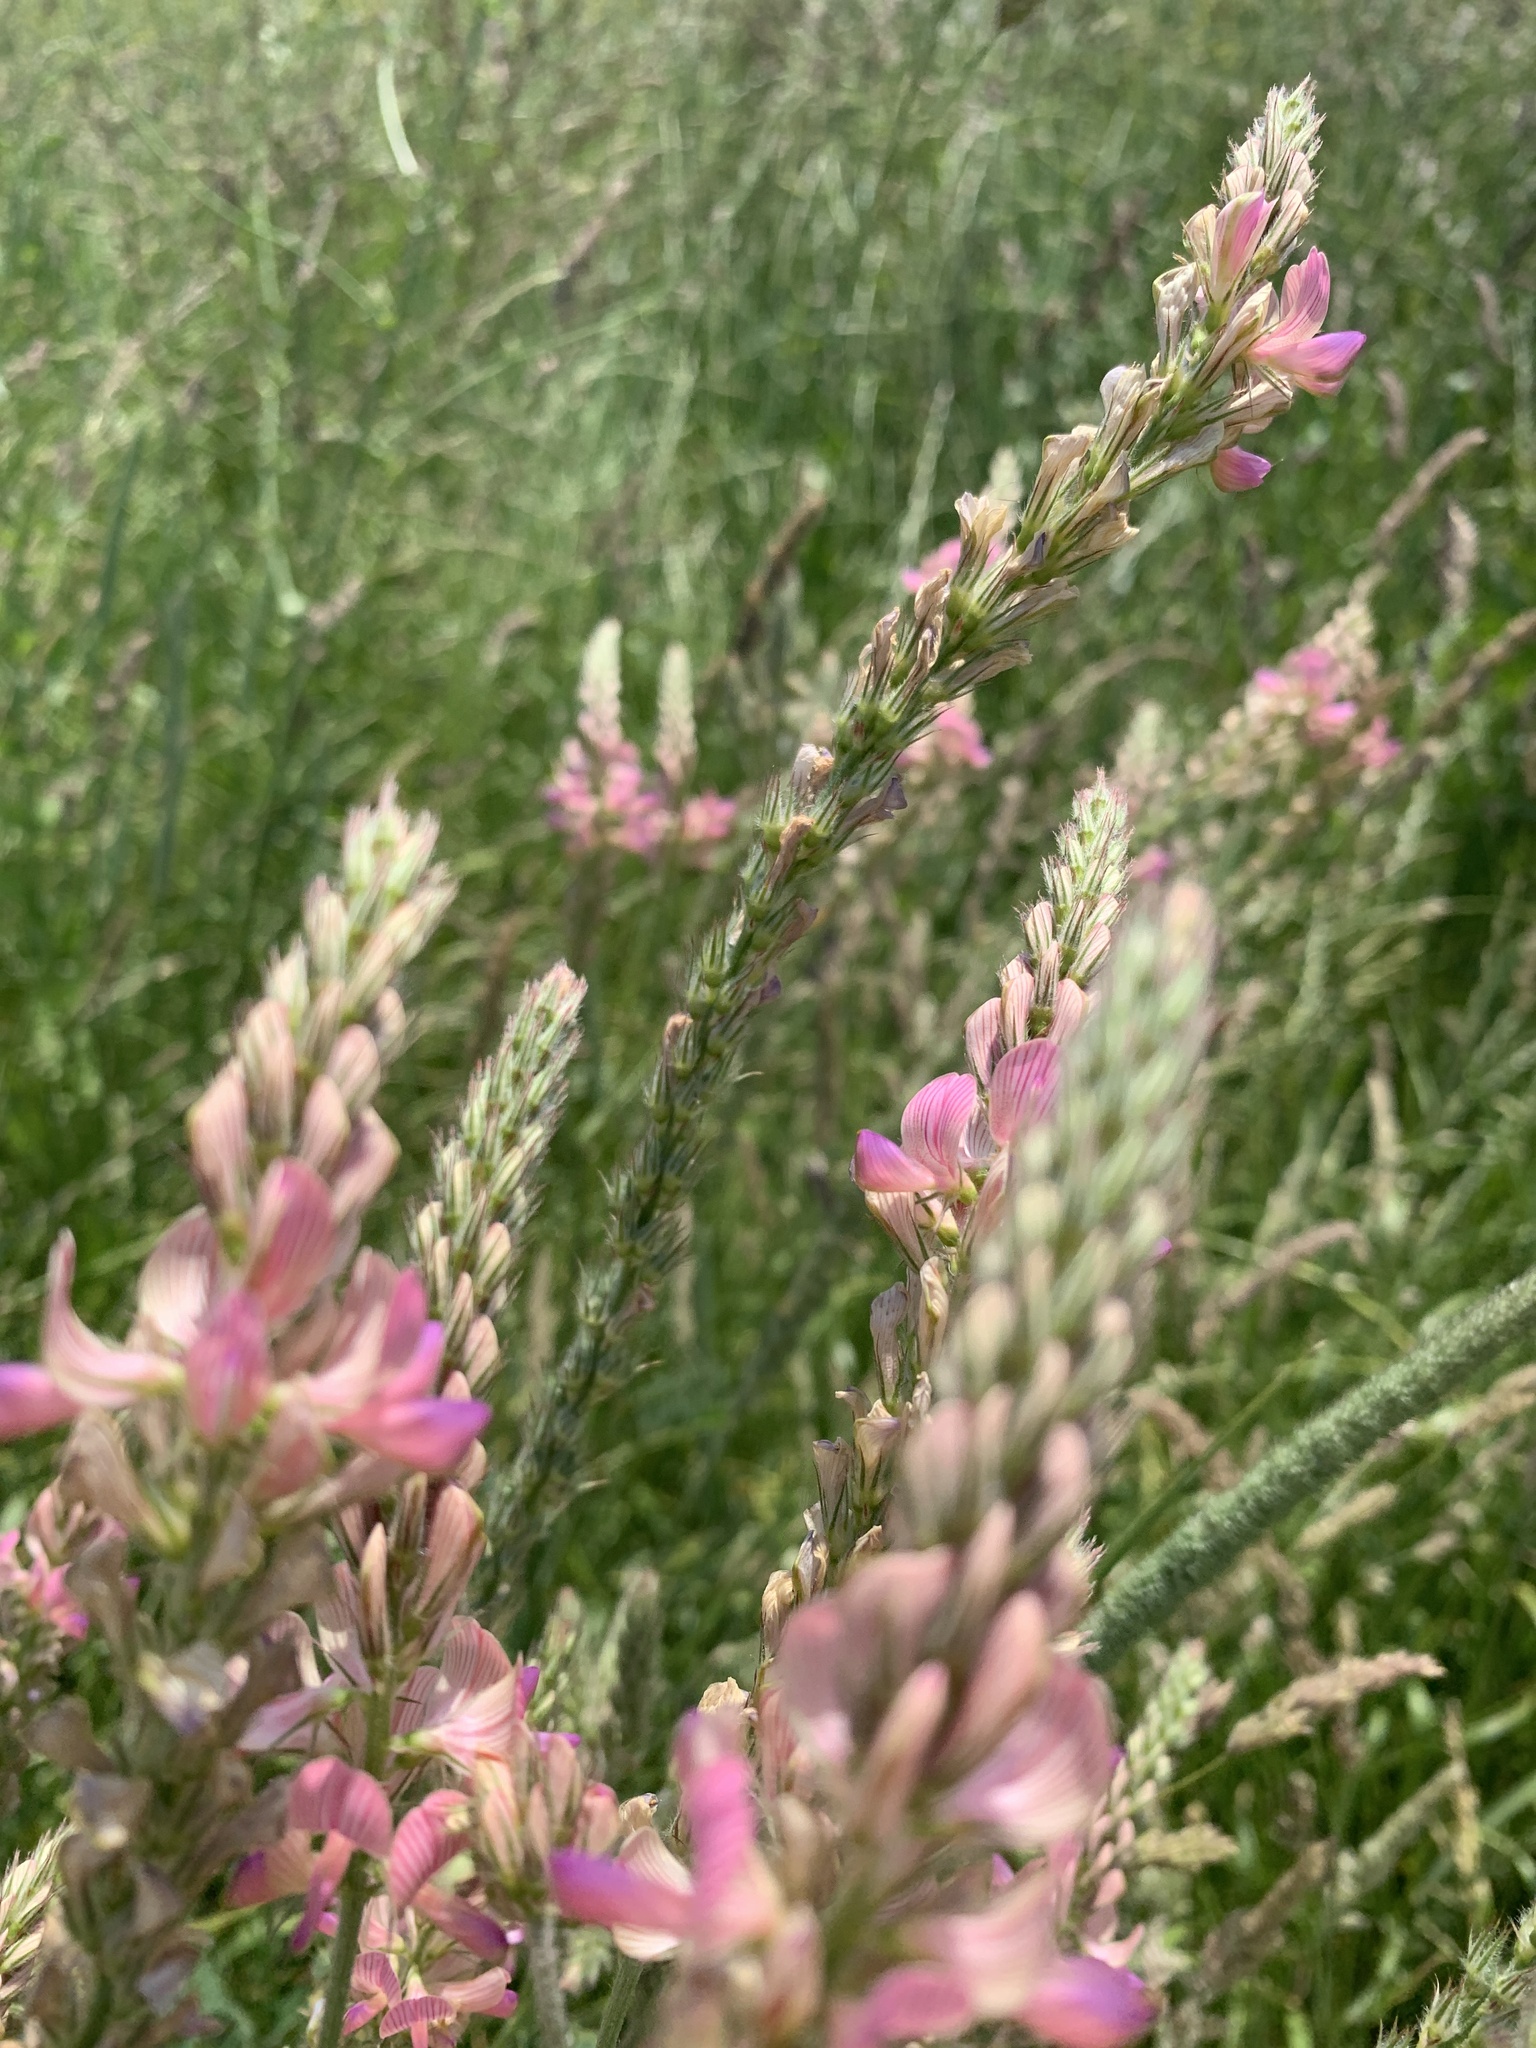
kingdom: Plantae
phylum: Tracheophyta
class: Magnoliopsida
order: Fabales
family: Fabaceae
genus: Onobrychis
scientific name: Onobrychis viciifolia
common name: Sainfoin
